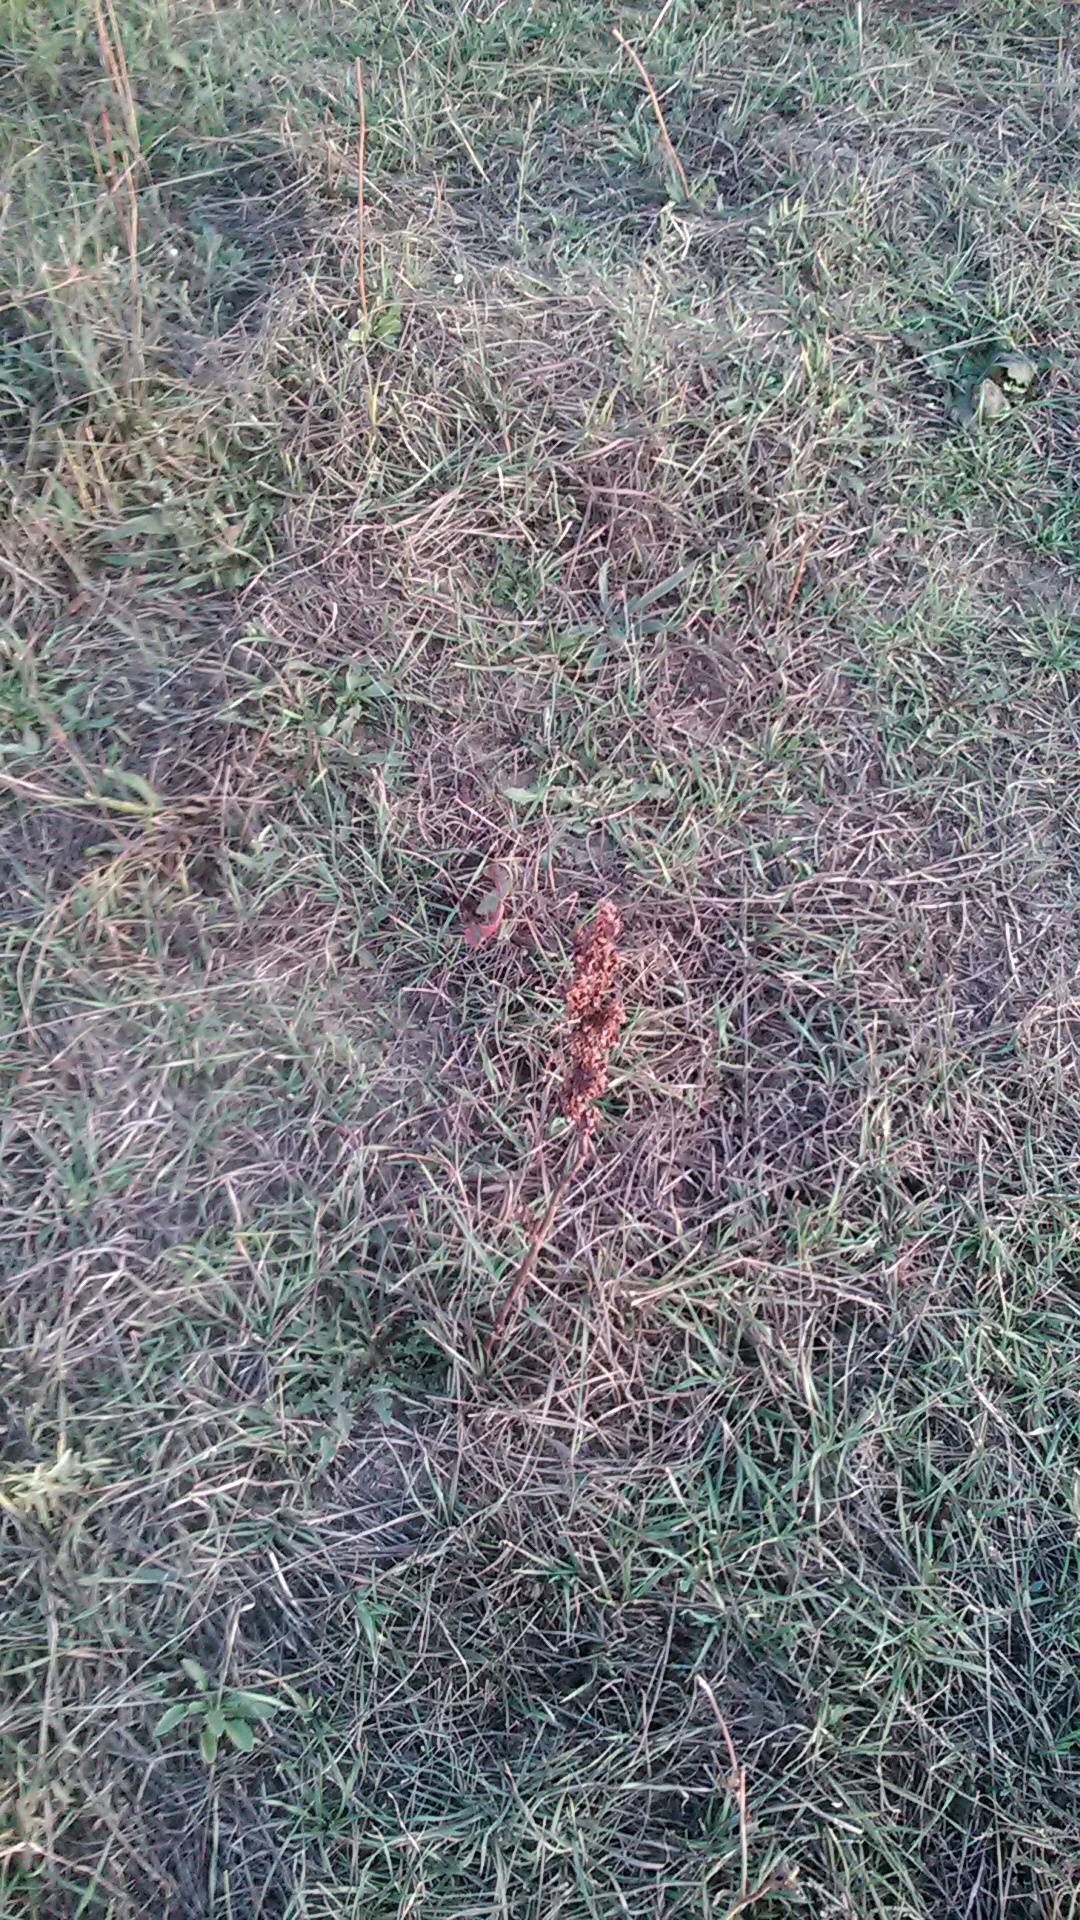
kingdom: Plantae
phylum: Tracheophyta
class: Magnoliopsida
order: Caryophyllales
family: Polygonaceae
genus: Rumex
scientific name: Rumex crispus
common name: Curled dock
